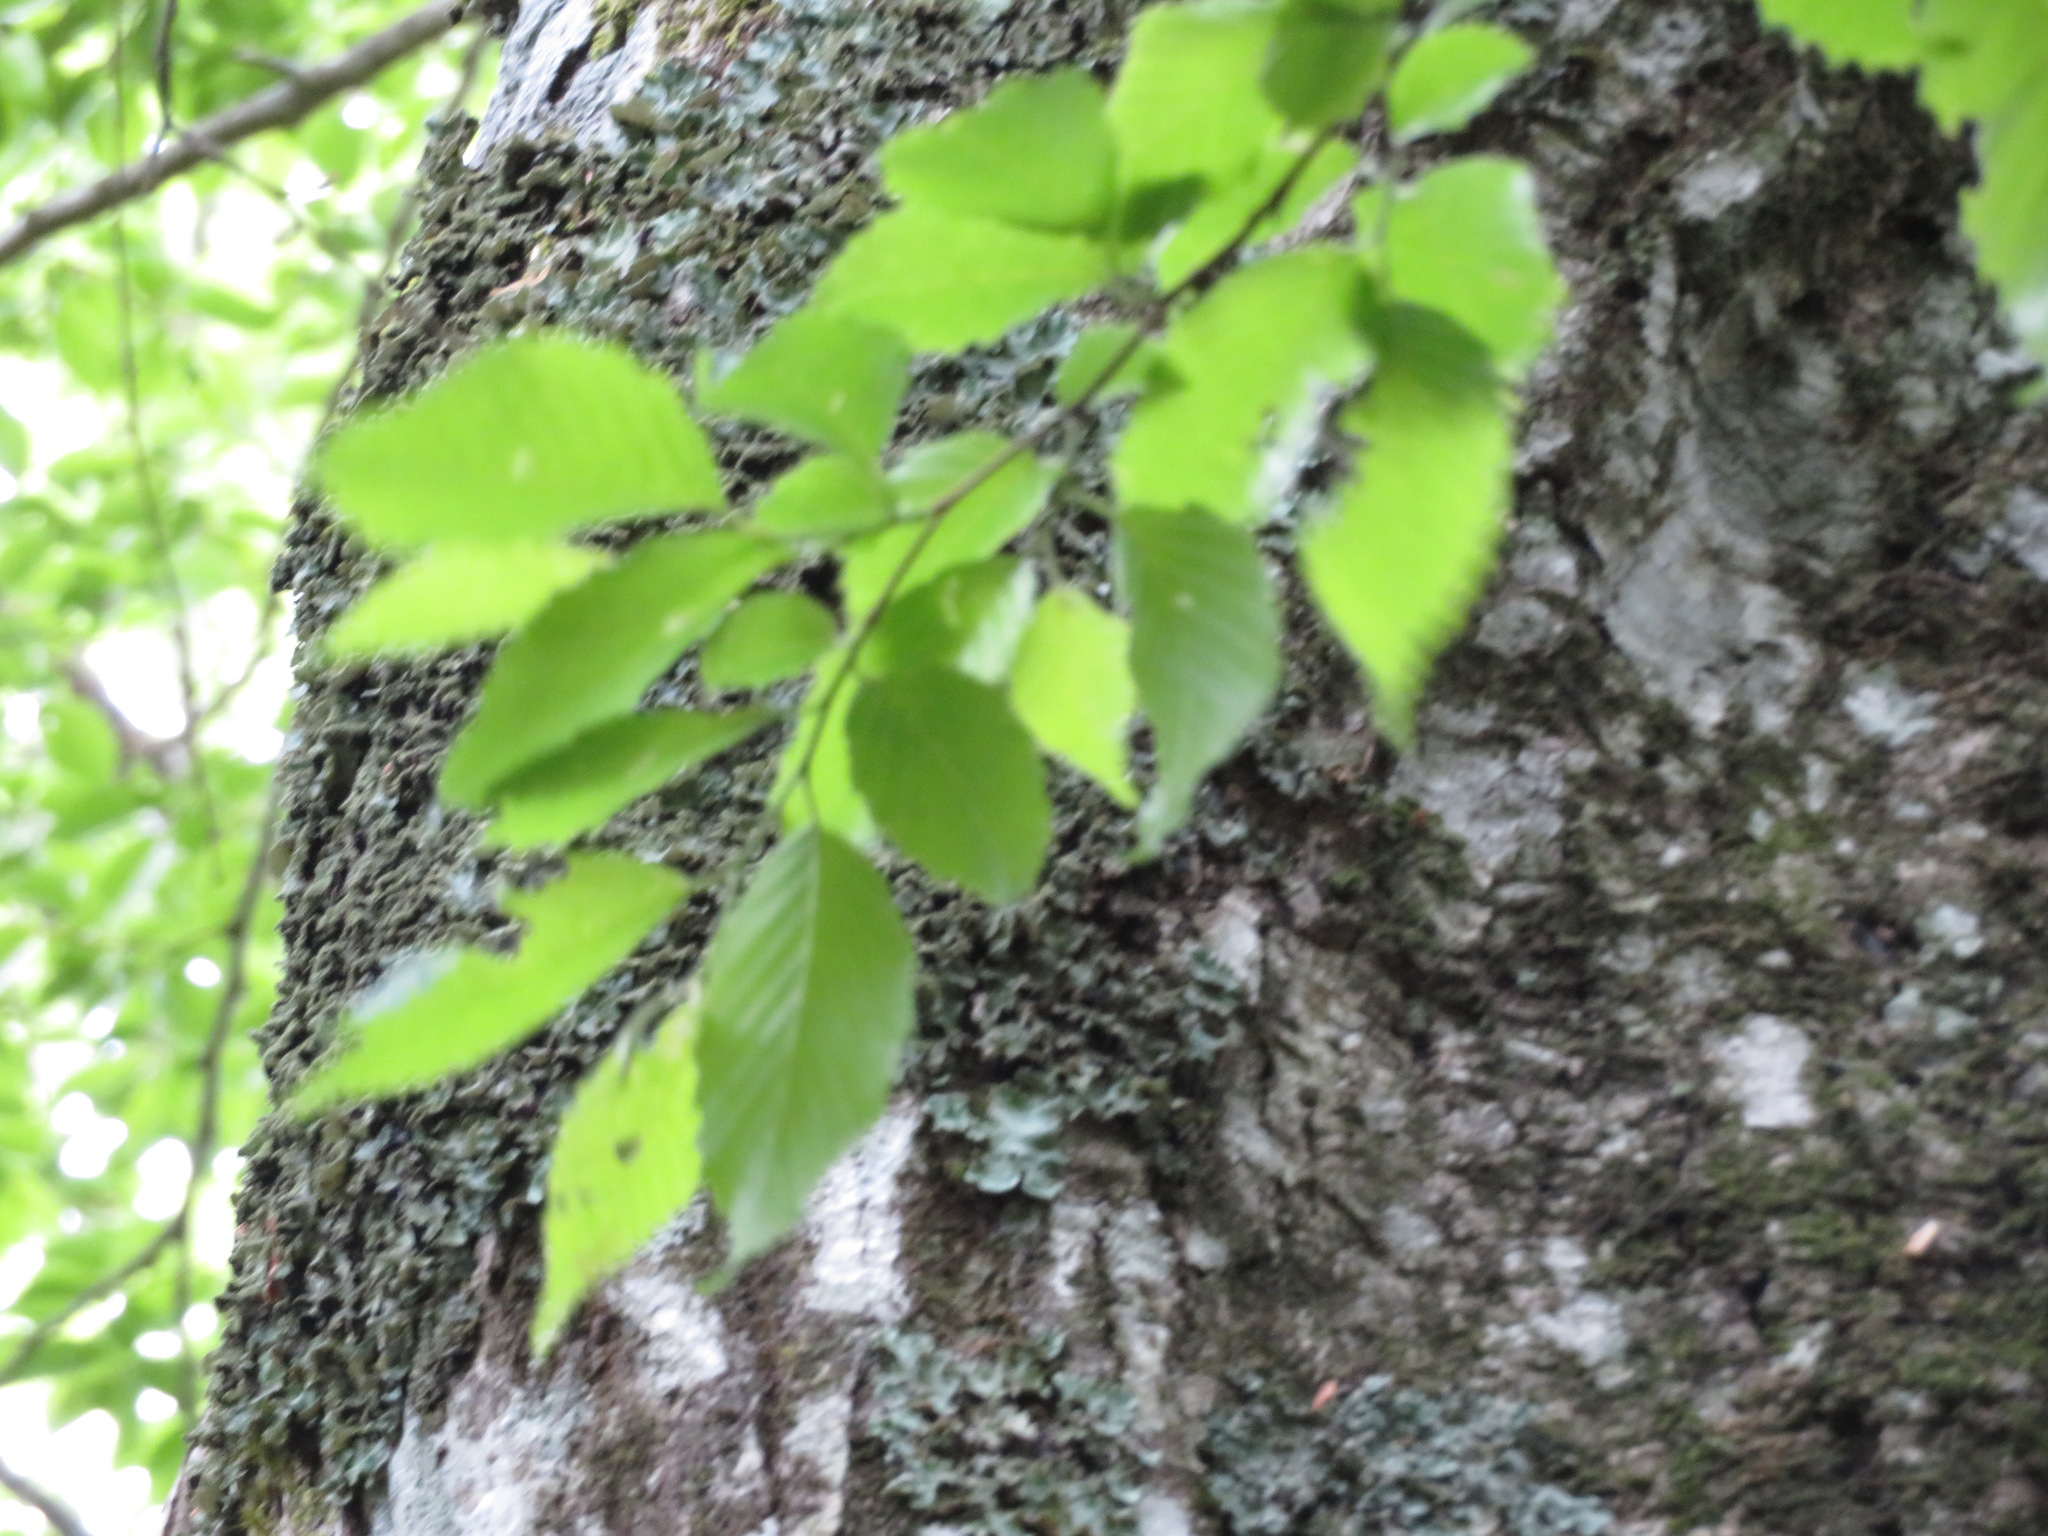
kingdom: Plantae
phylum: Tracheophyta
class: Magnoliopsida
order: Fagales
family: Betulaceae
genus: Carpinus
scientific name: Carpinus tschonoskii
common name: Asian hornbeam
